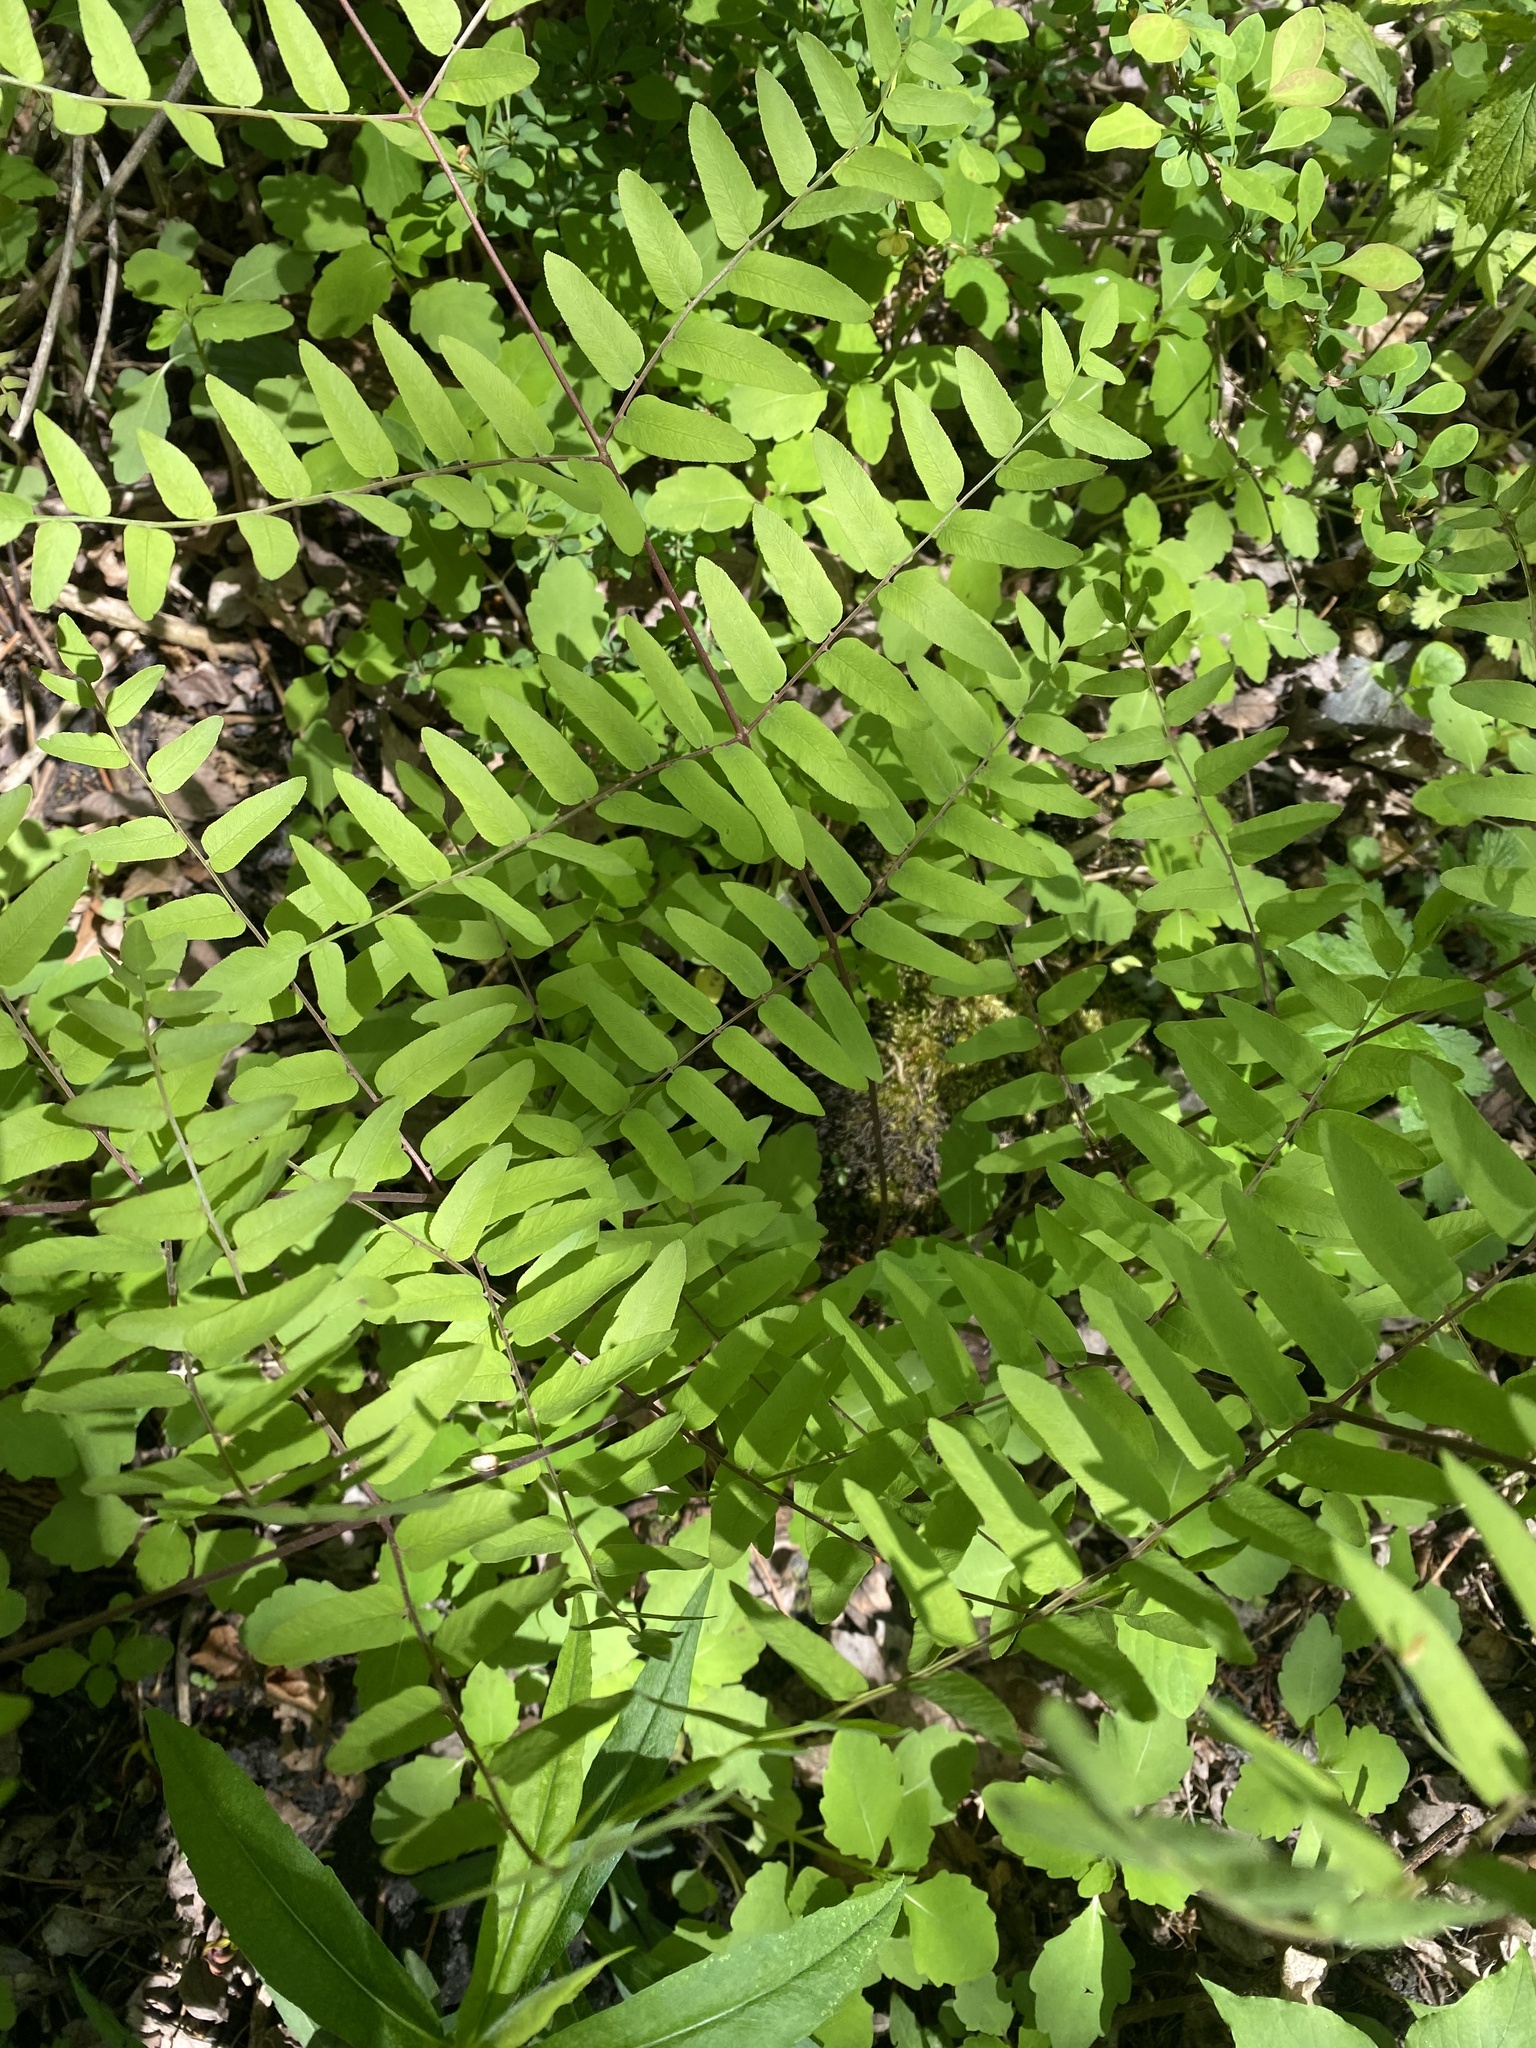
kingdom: Plantae
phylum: Tracheophyta
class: Polypodiopsida
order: Osmundales
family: Osmundaceae
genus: Osmunda
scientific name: Osmunda spectabilis
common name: American royal fern
